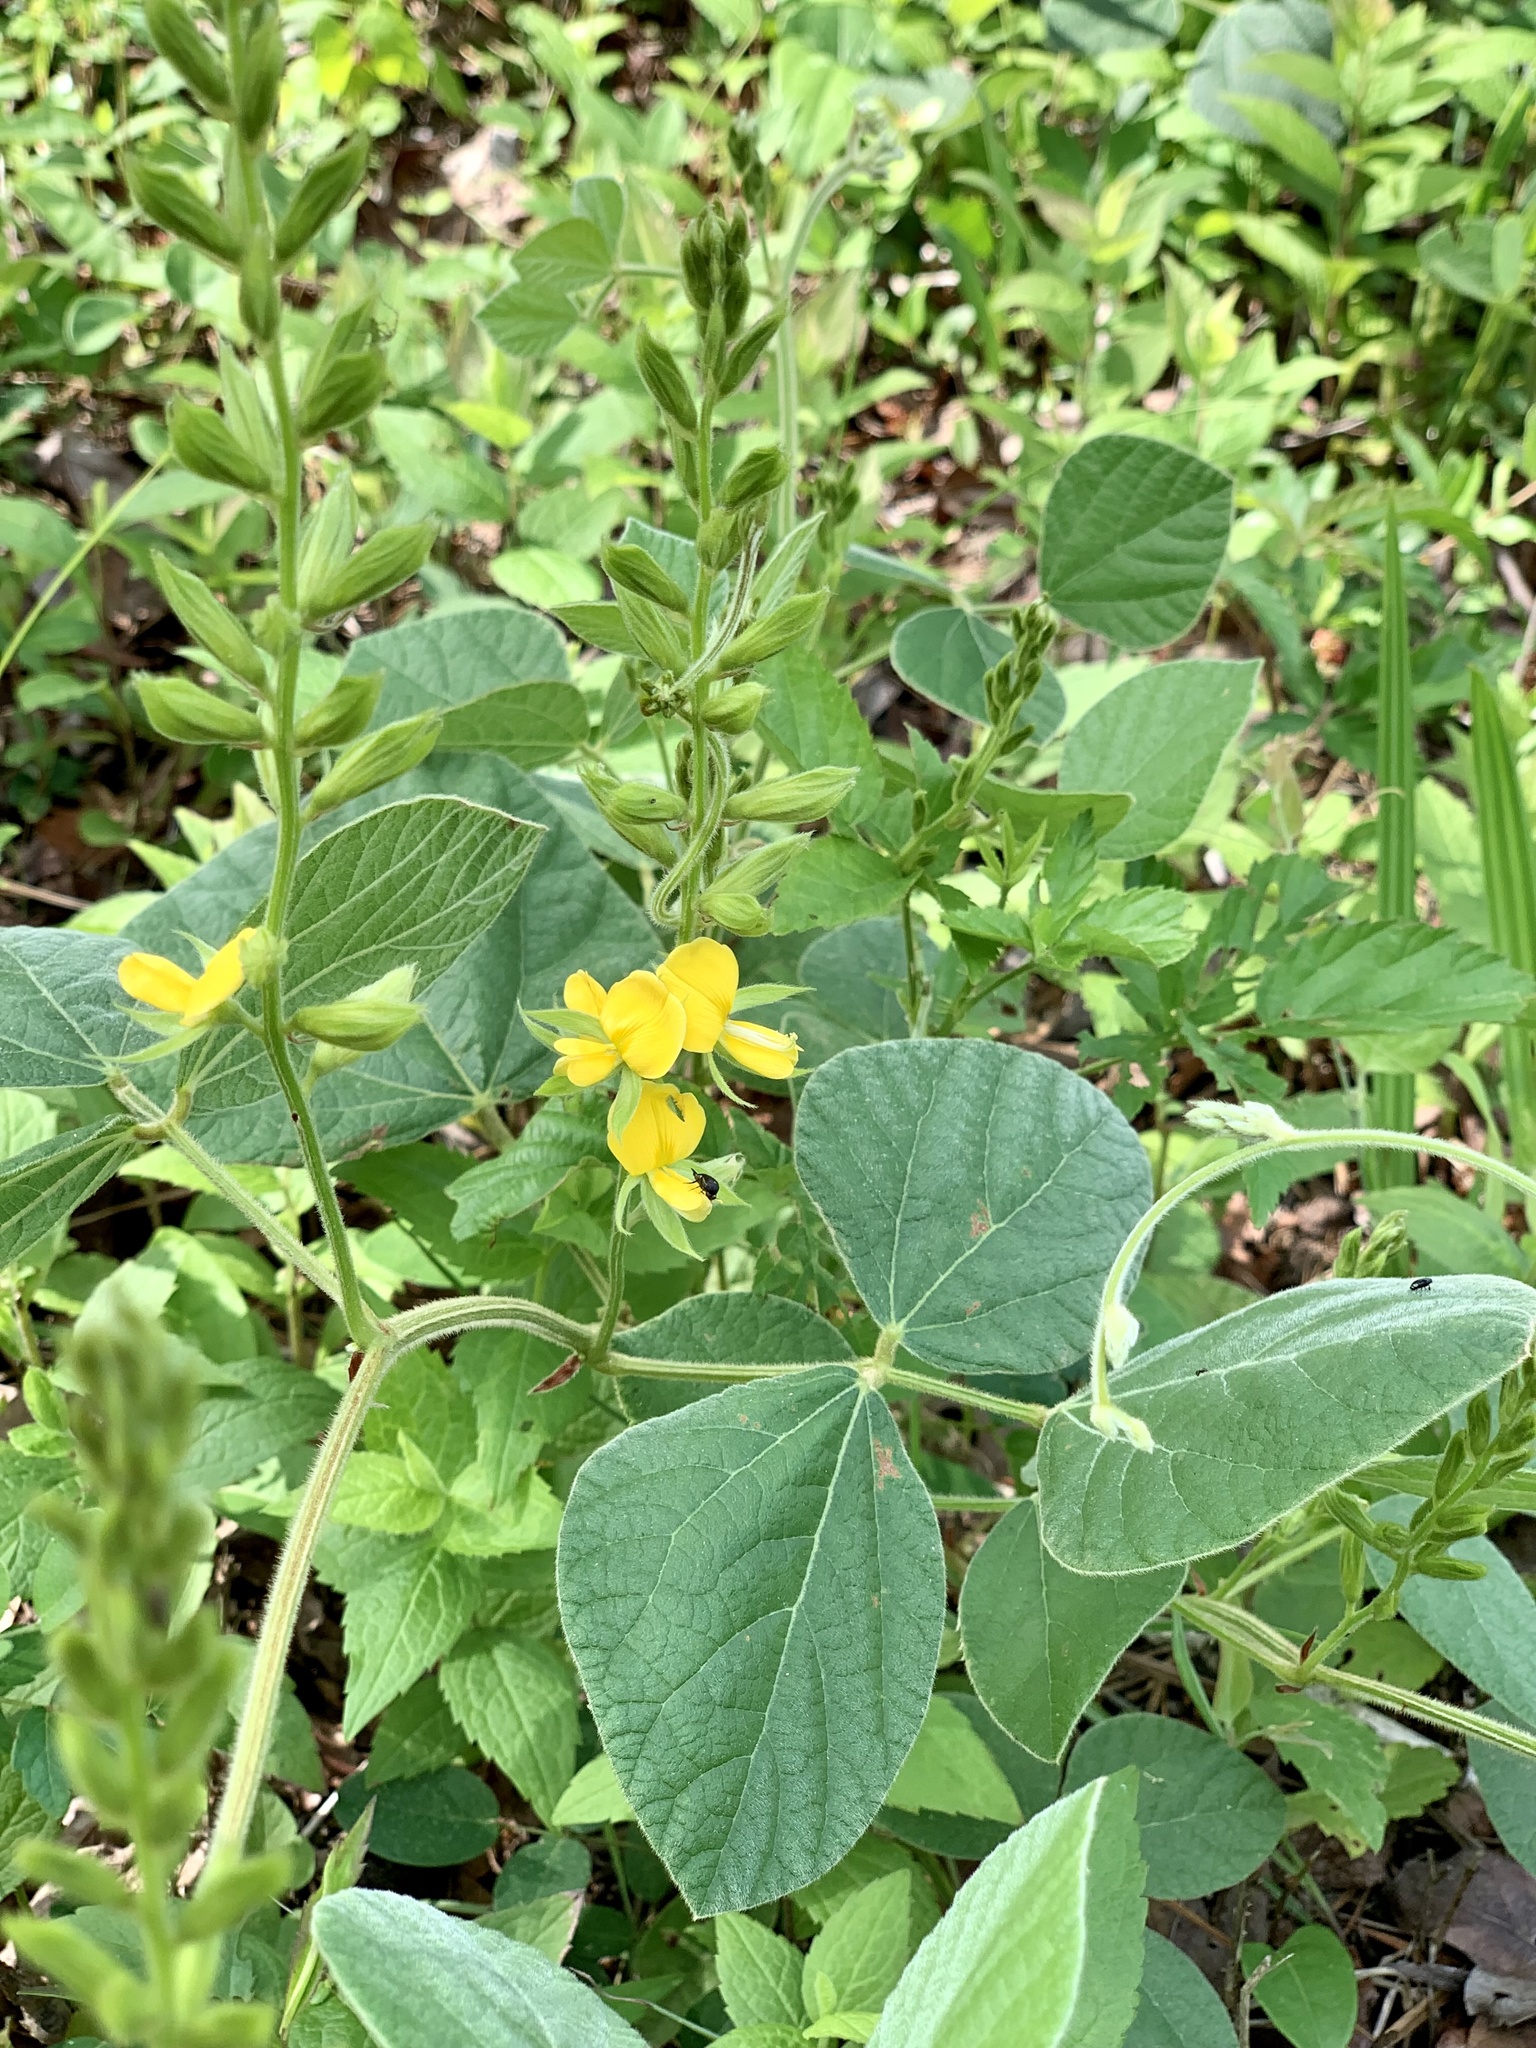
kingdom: Plantae
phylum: Tracheophyta
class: Magnoliopsida
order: Fabales
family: Fabaceae
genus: Rhynchosia
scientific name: Rhynchosia latifolia
